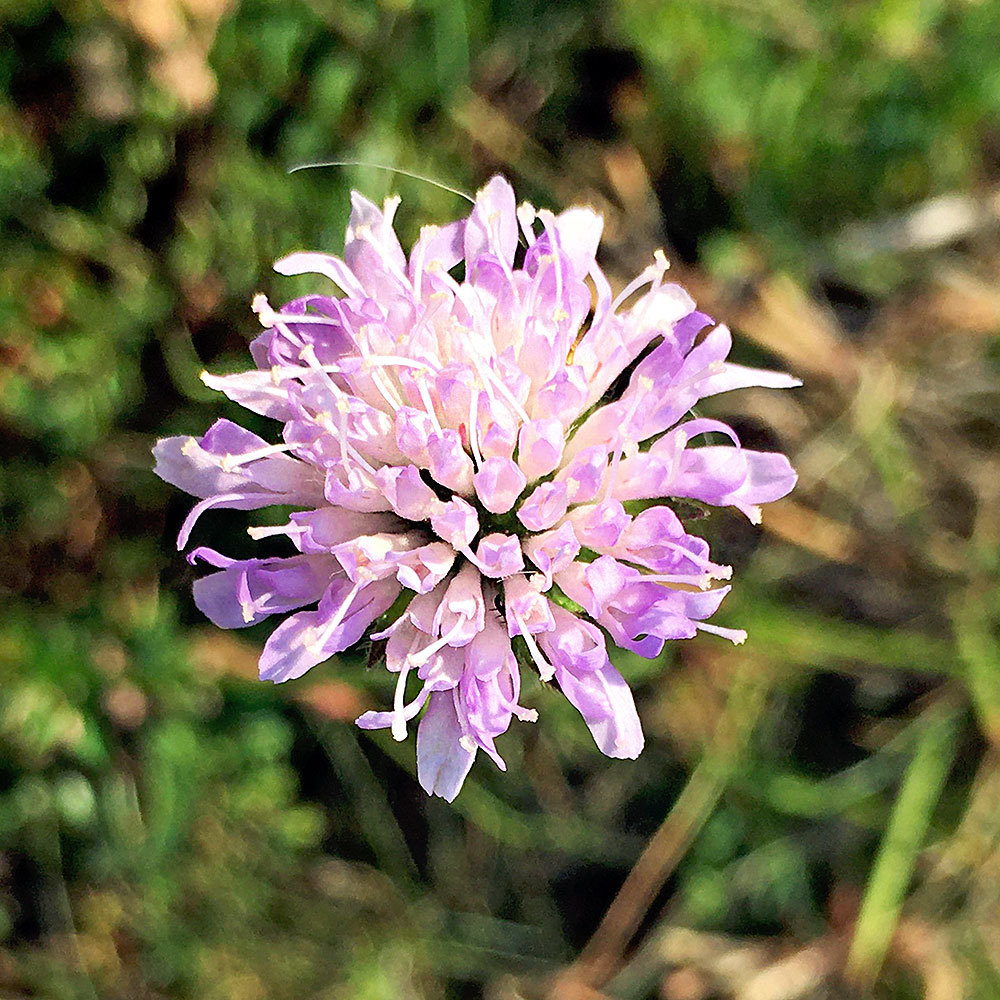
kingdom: Plantae
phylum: Tracheophyta
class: Magnoliopsida
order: Dipsacales
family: Caprifoliaceae
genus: Knautia
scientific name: Knautia arvensis
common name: Field scabiosa
